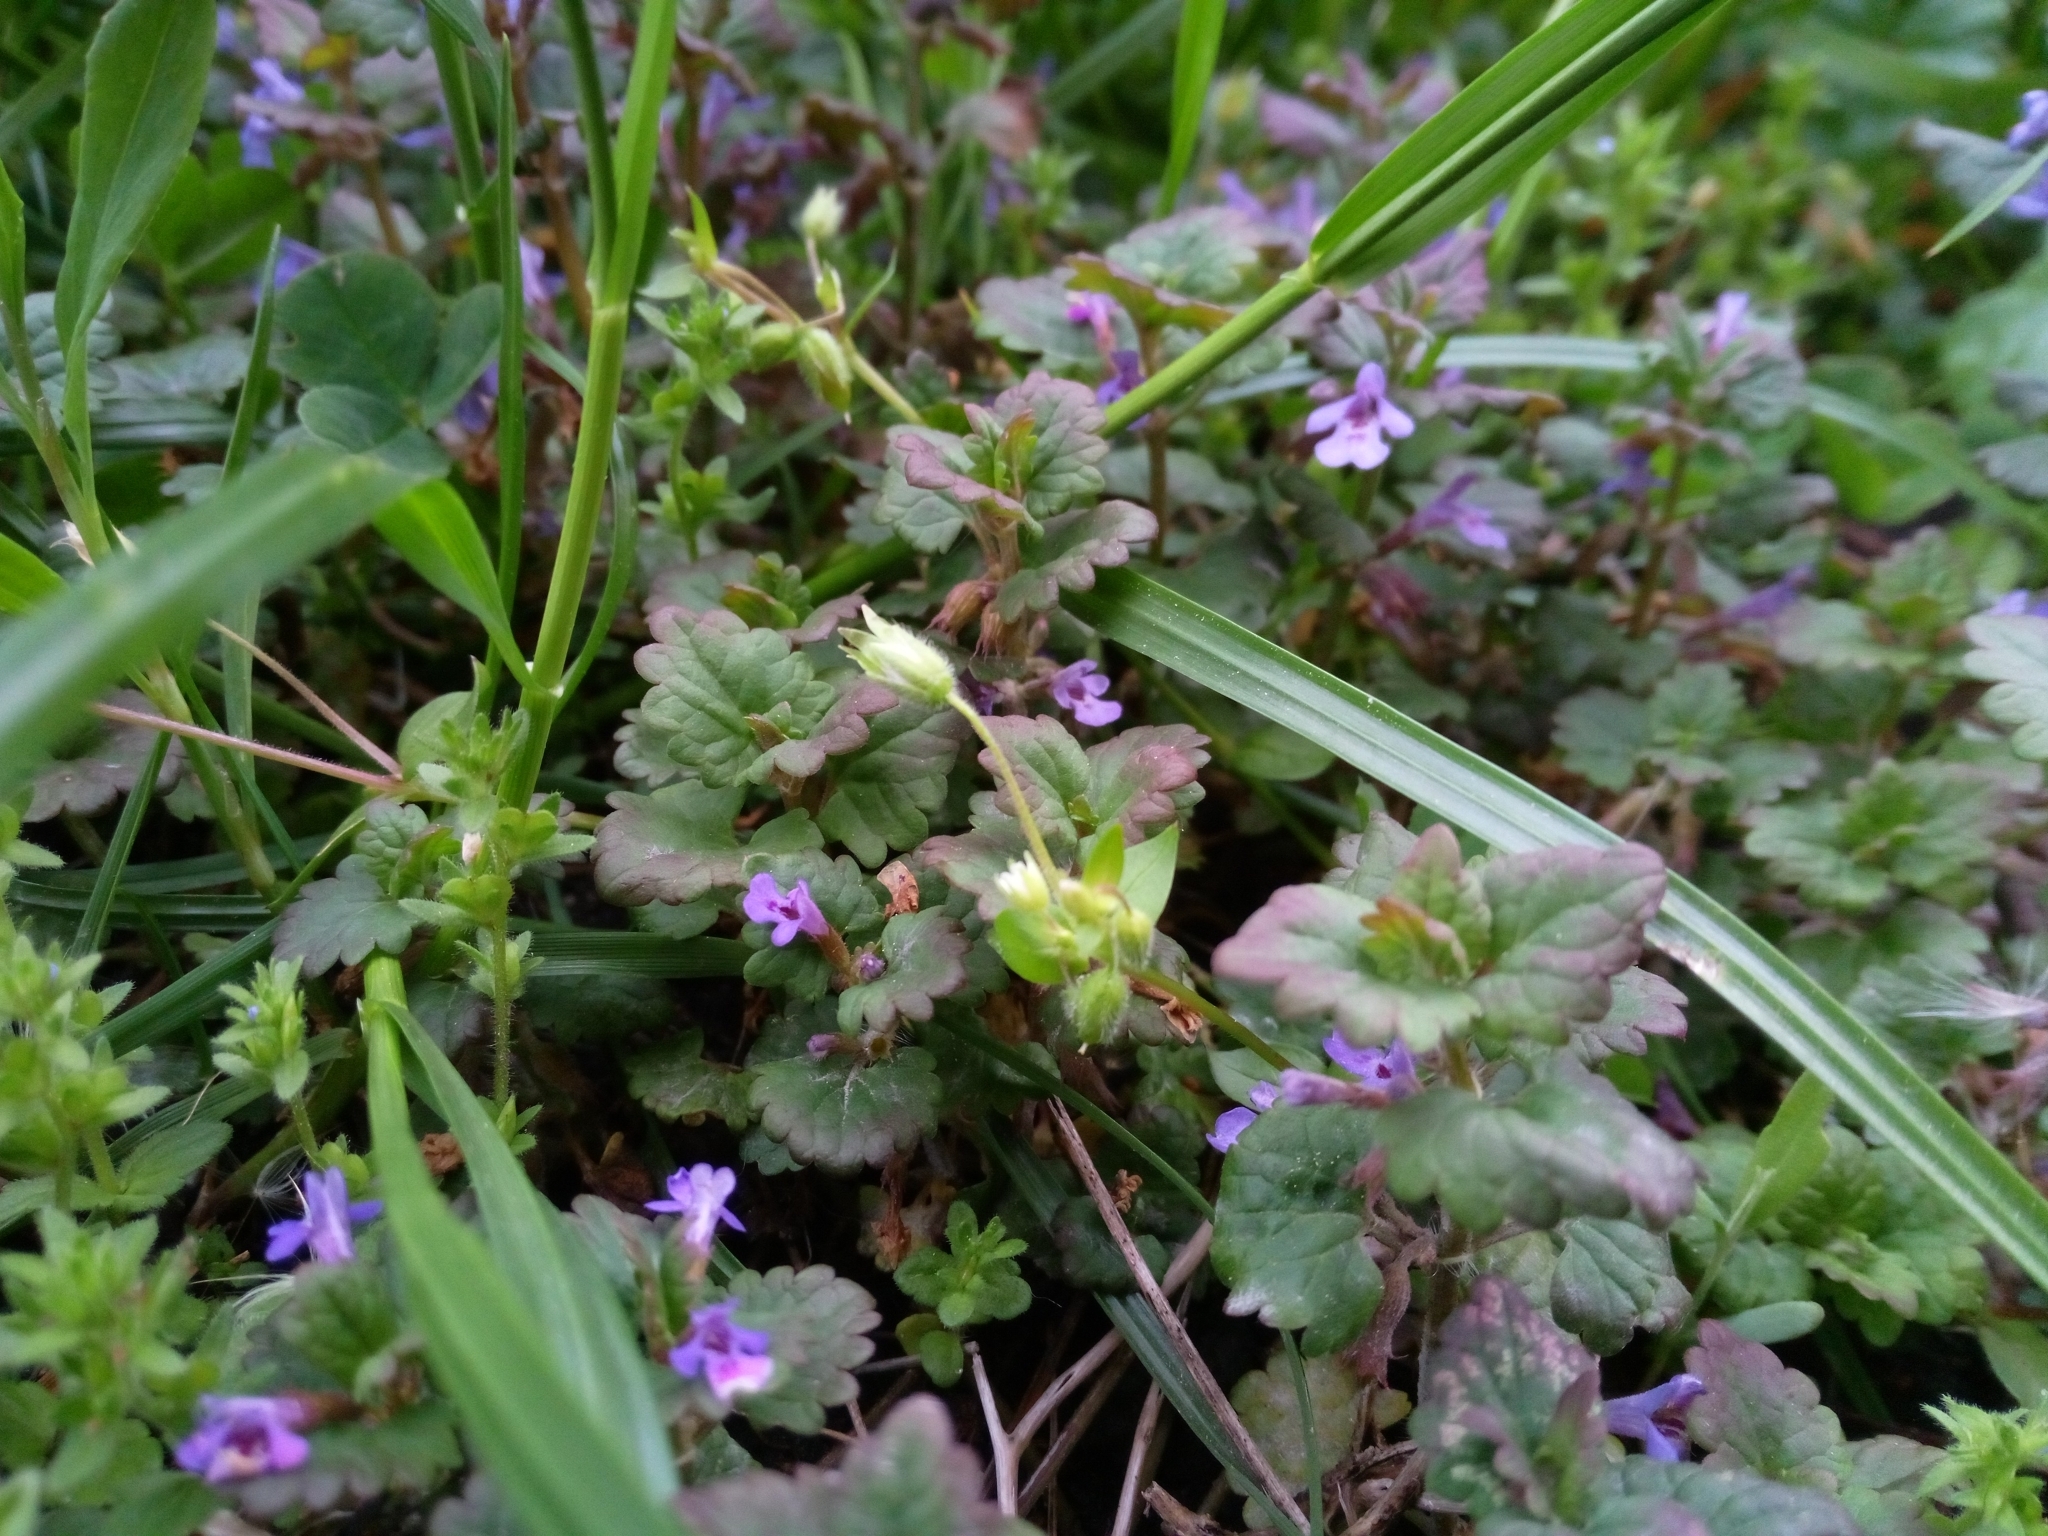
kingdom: Plantae
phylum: Tracheophyta
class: Magnoliopsida
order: Lamiales
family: Lamiaceae
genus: Glechoma
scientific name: Glechoma hederacea
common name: Ground ivy
